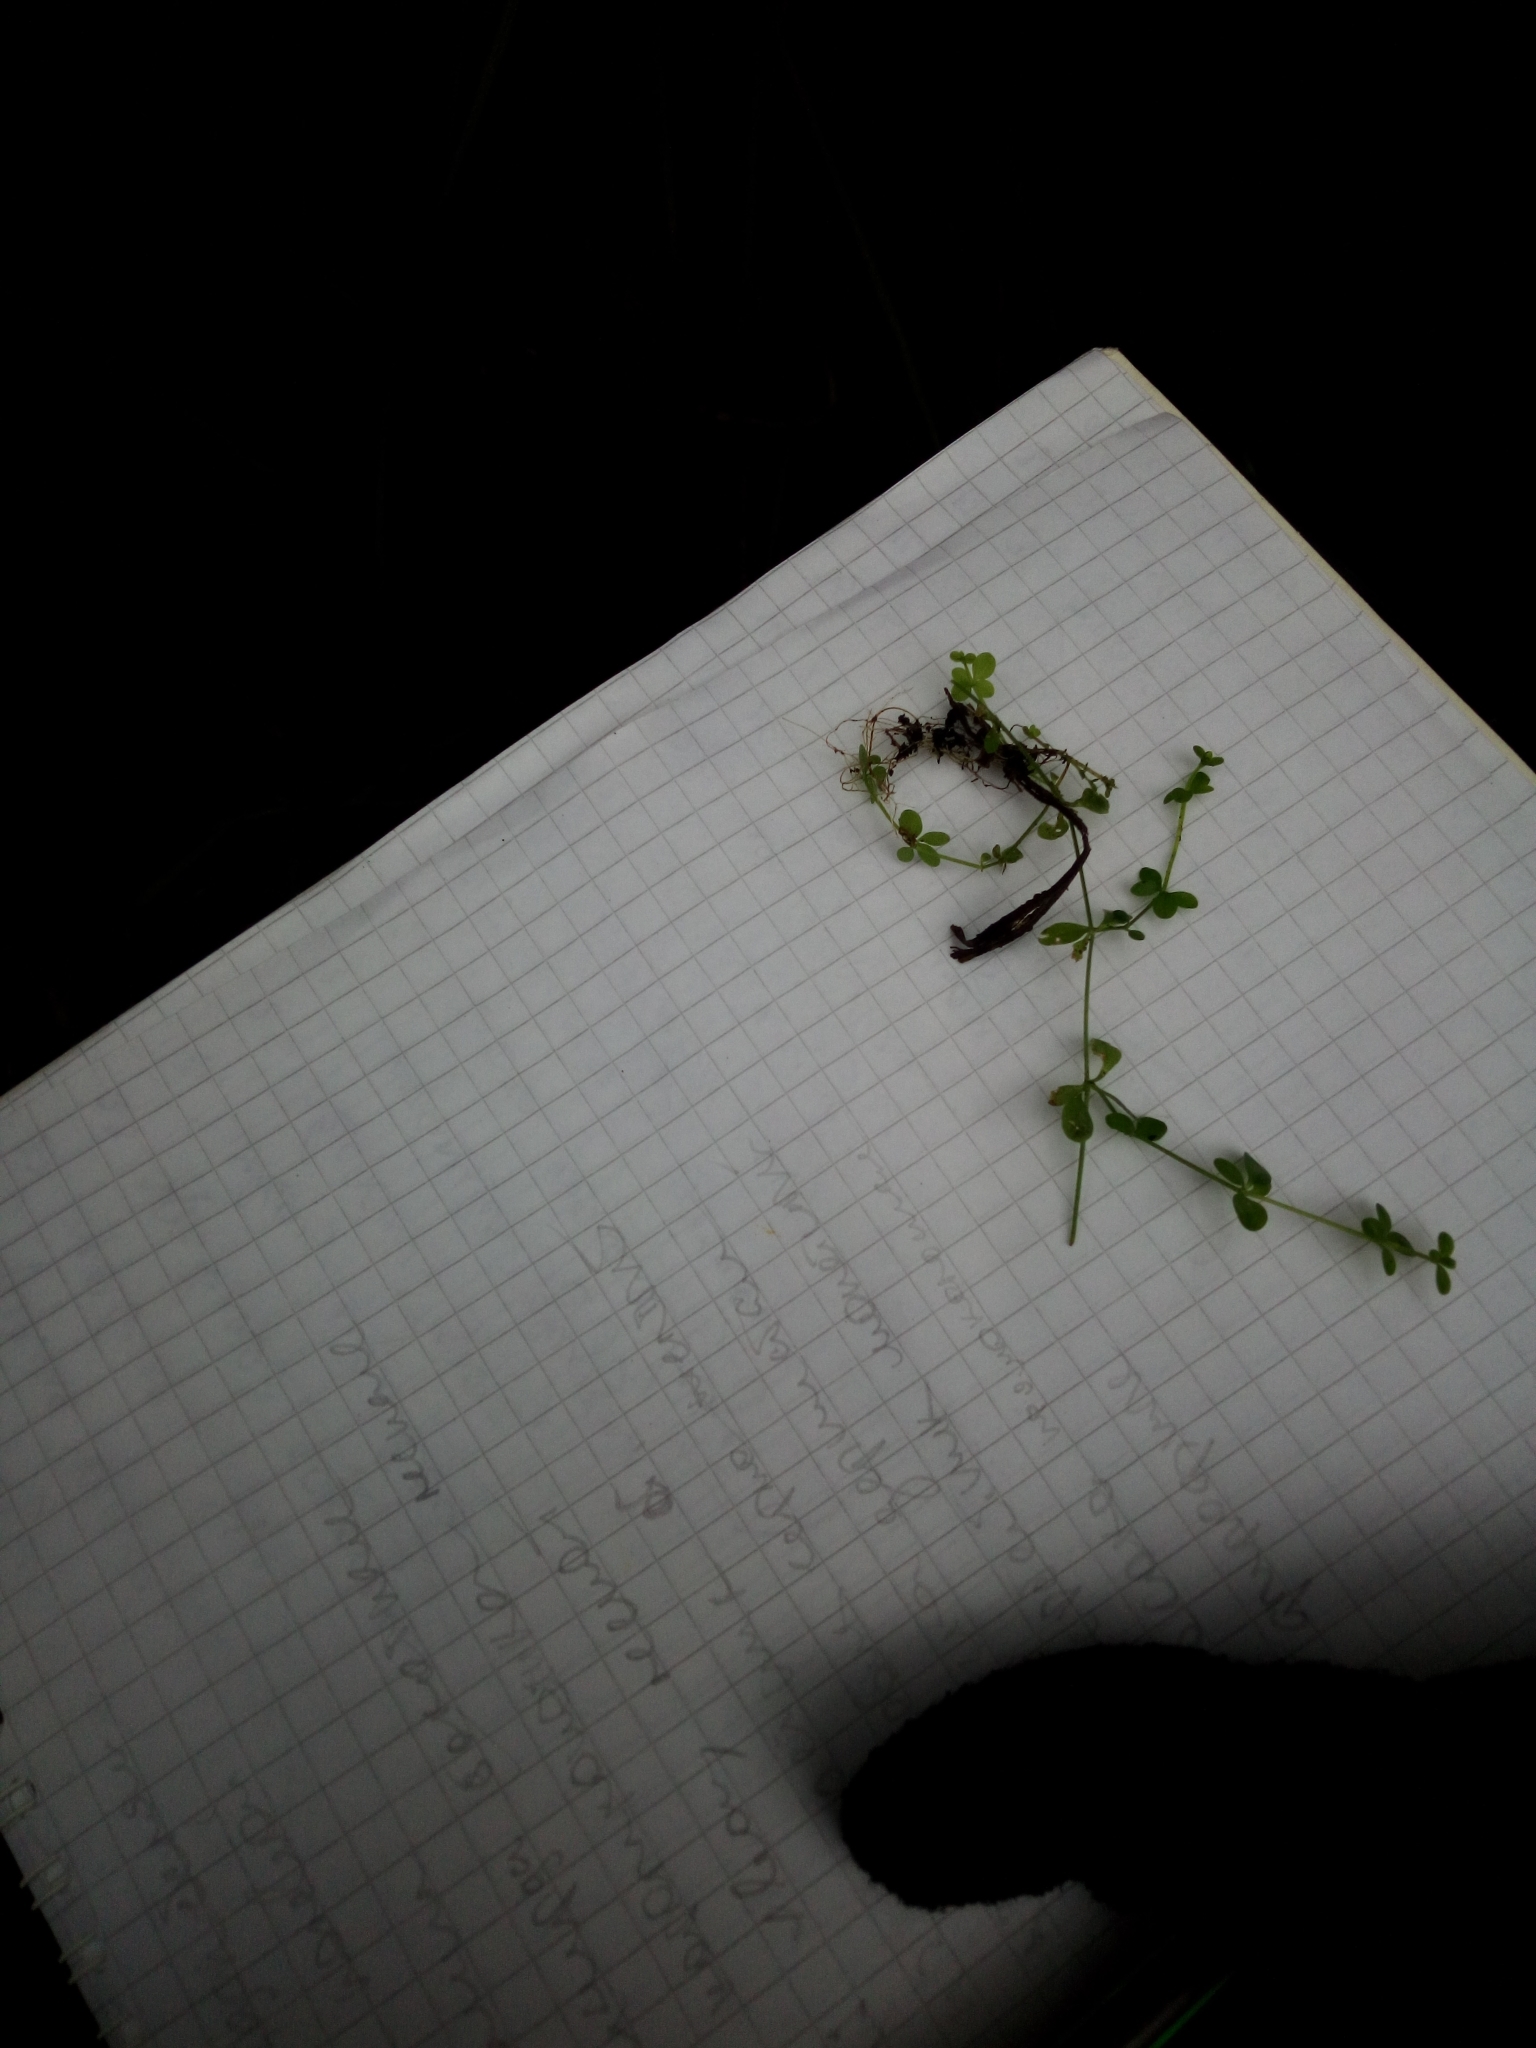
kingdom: Plantae
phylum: Tracheophyta
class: Magnoliopsida
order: Gentianales
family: Rubiaceae
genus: Galium
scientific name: Galium palustre
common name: Common marsh-bedstraw
